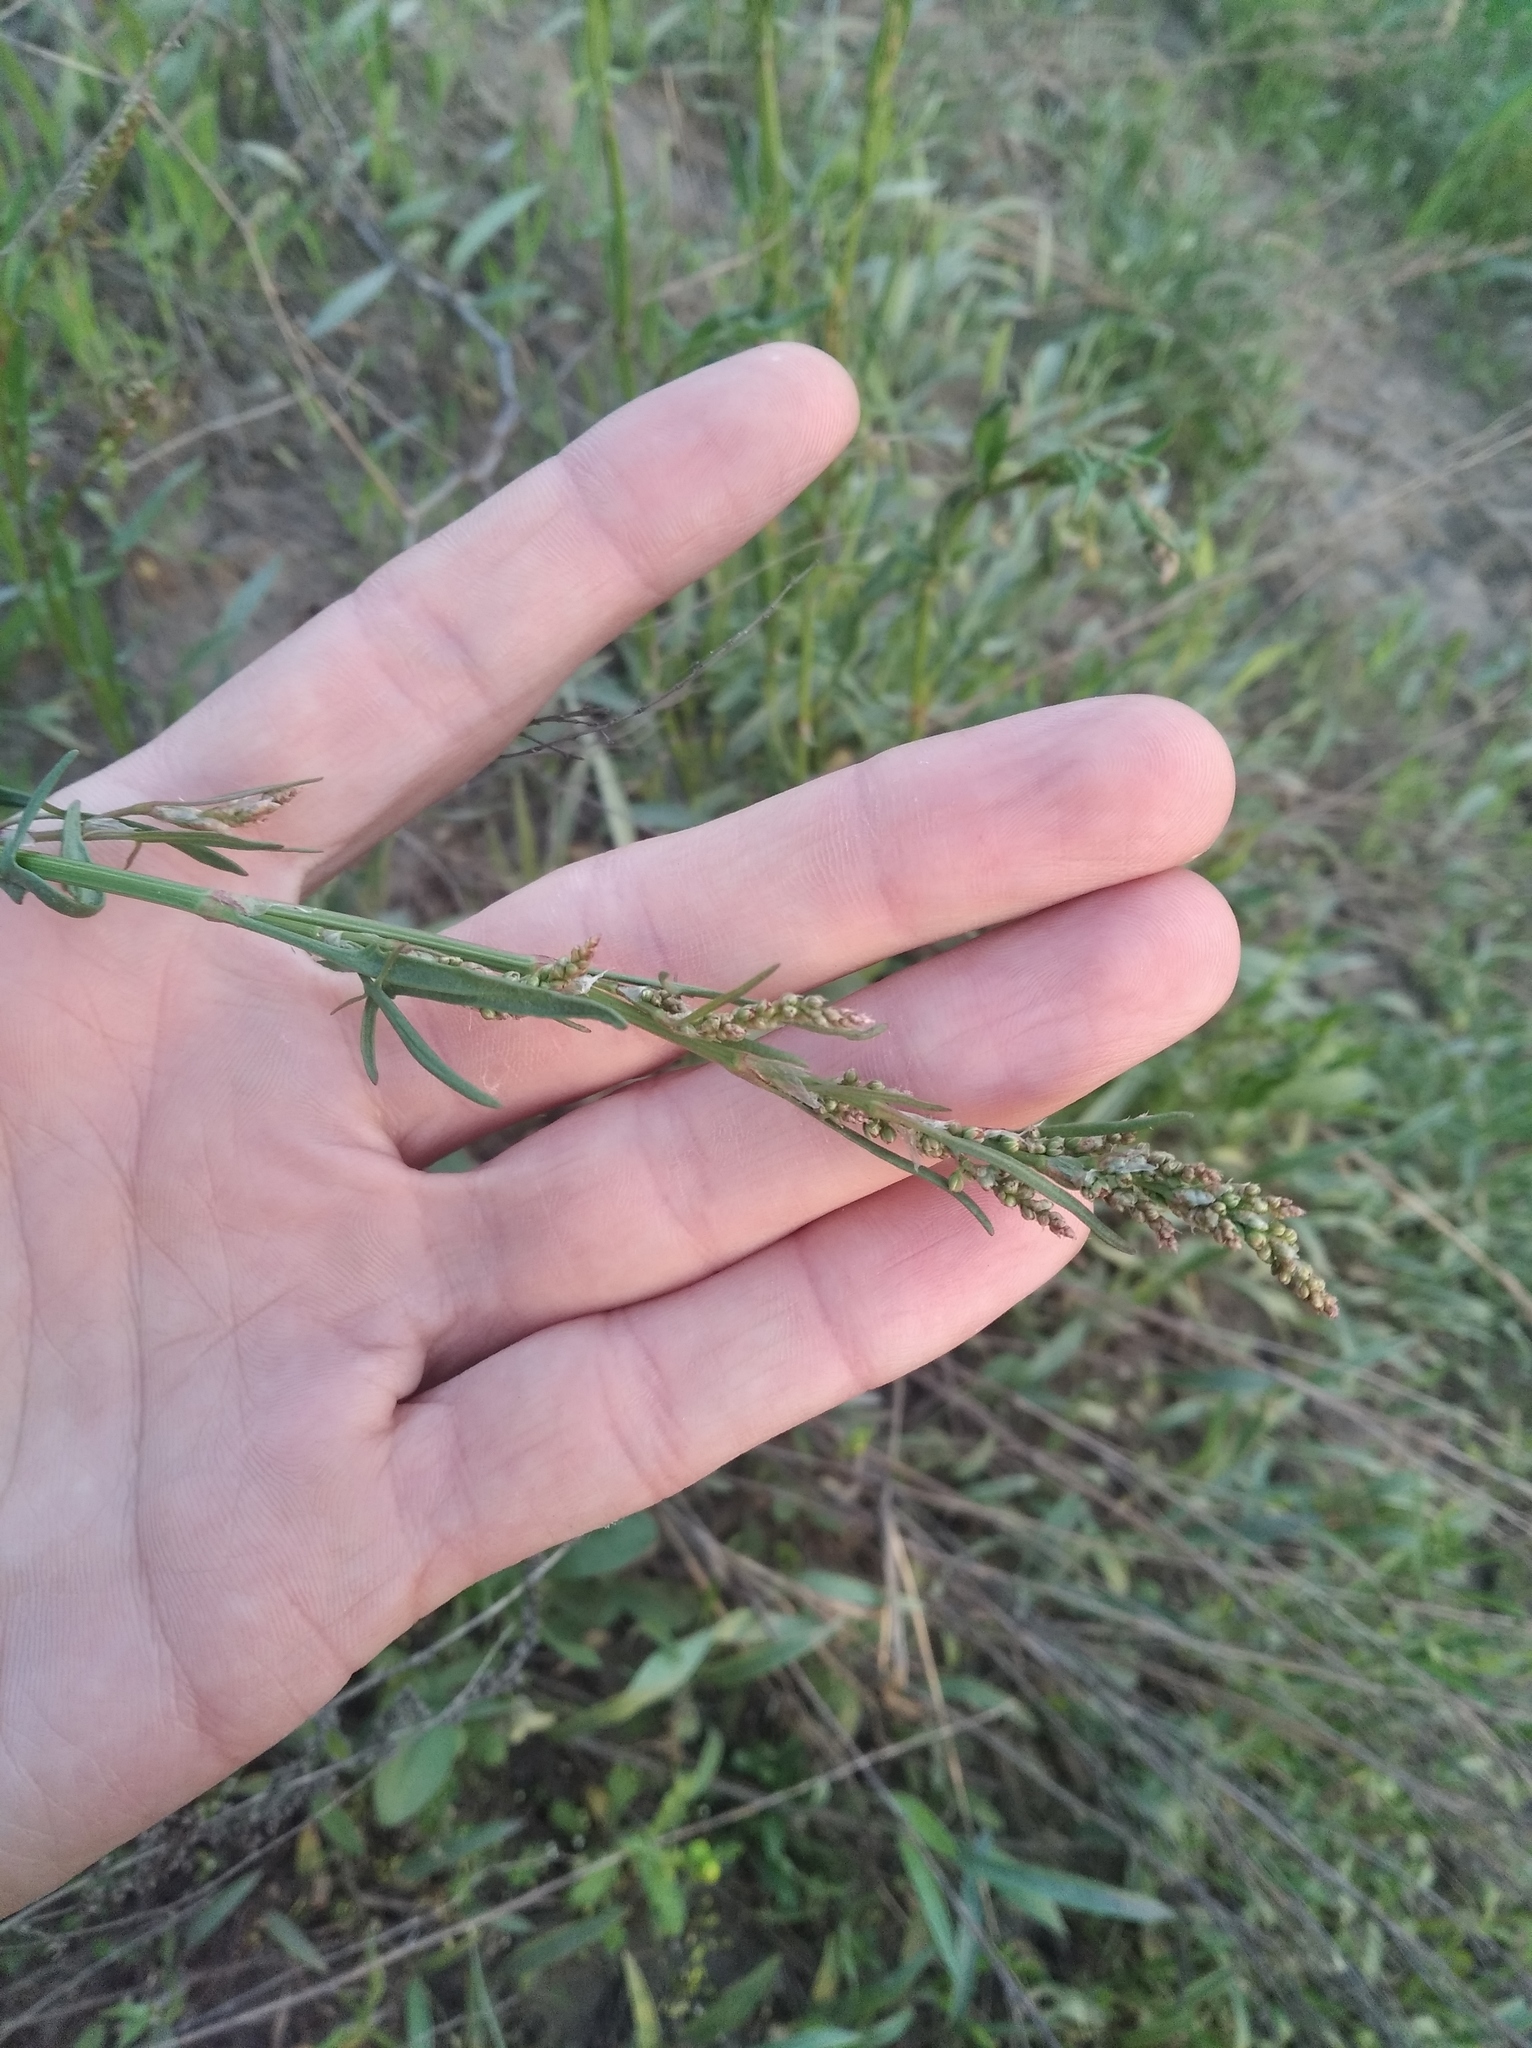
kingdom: Plantae
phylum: Tracheophyta
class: Magnoliopsida
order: Caryophyllales
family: Polygonaceae
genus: Rumex
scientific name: Rumex acetosella
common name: Common sheep sorrel
